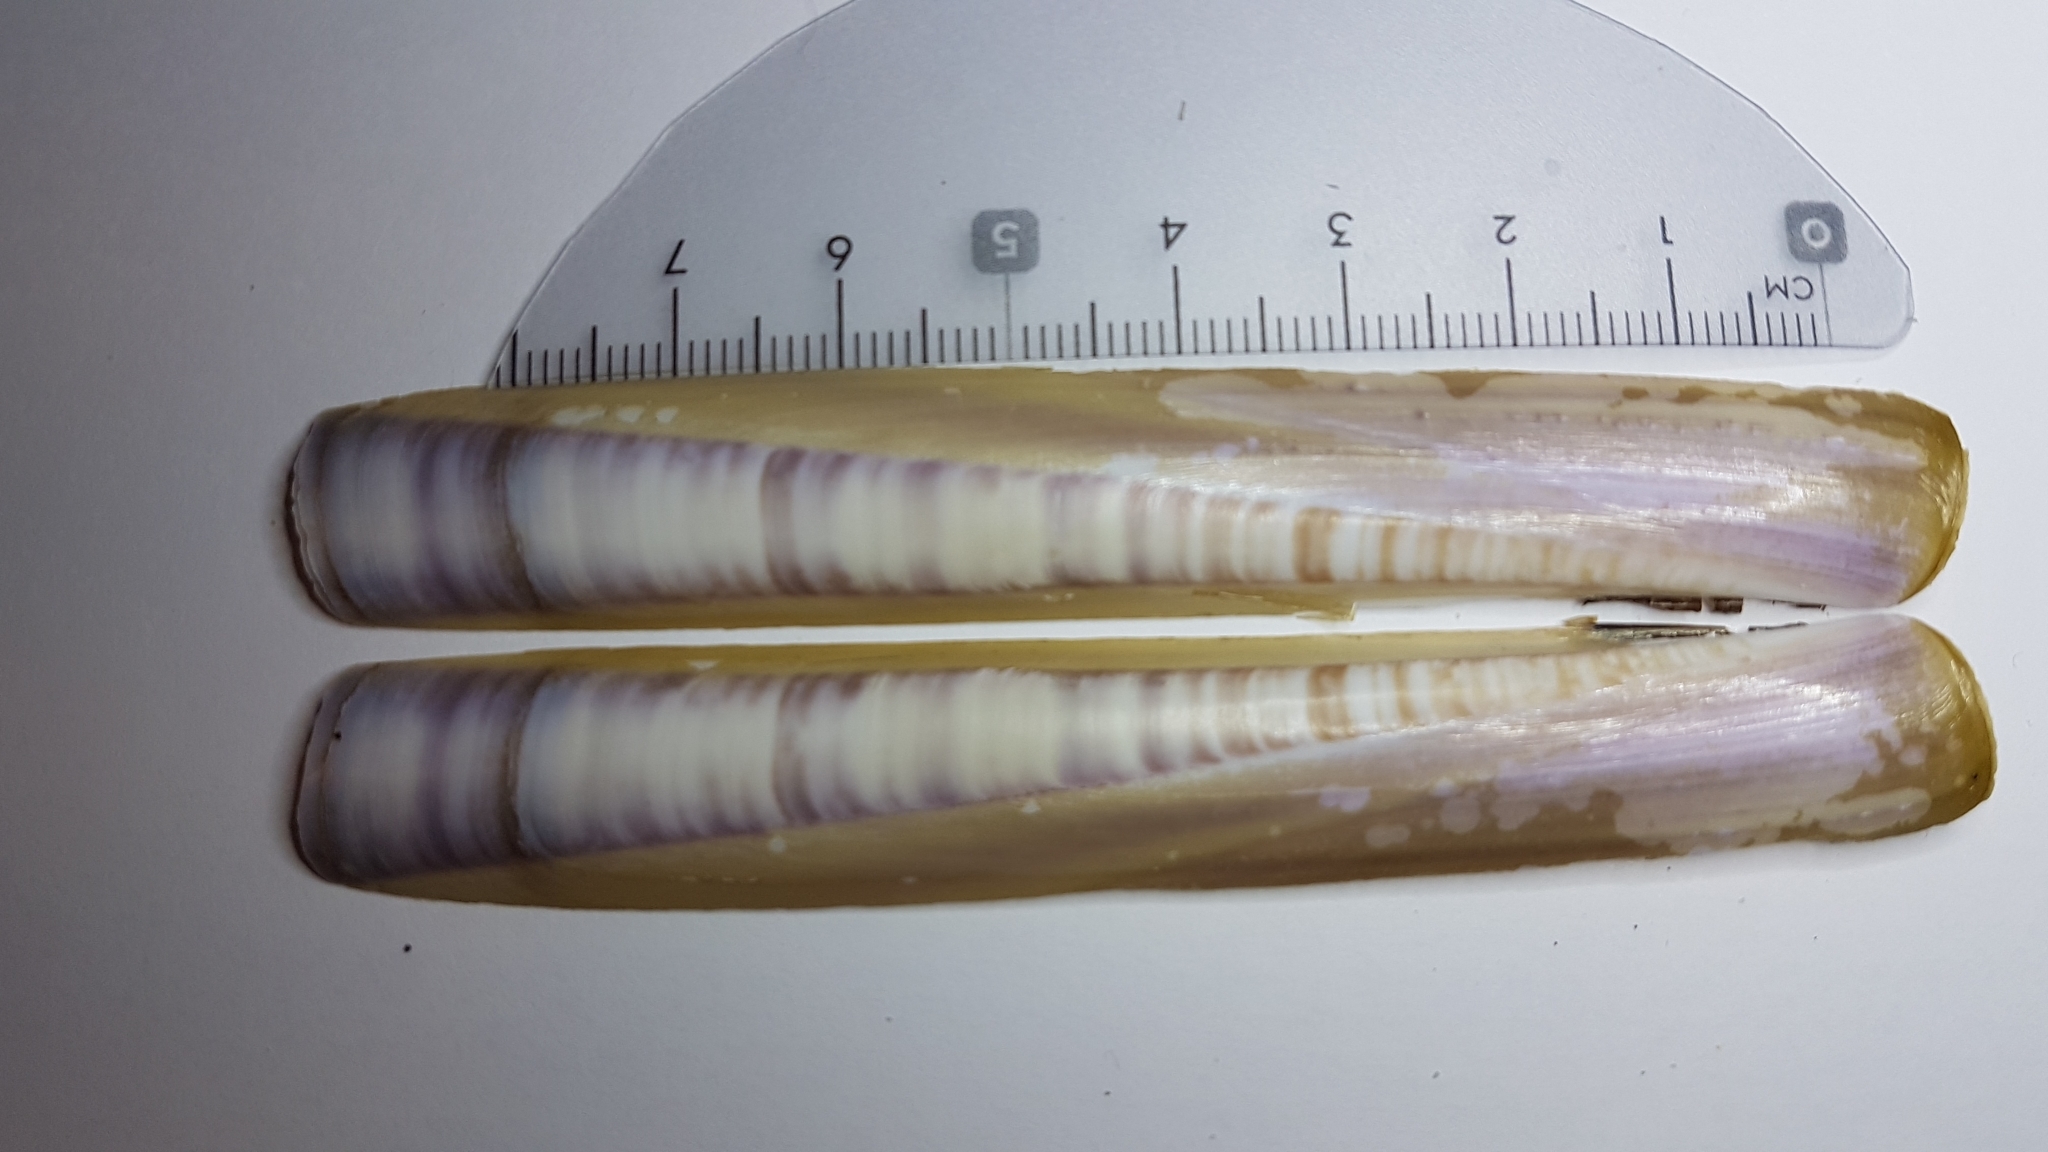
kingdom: Animalia
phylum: Mollusca
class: Bivalvia
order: Adapedonta
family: Pharidae
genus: Ensis
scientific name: Ensis minor
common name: Minor jackknife clam
